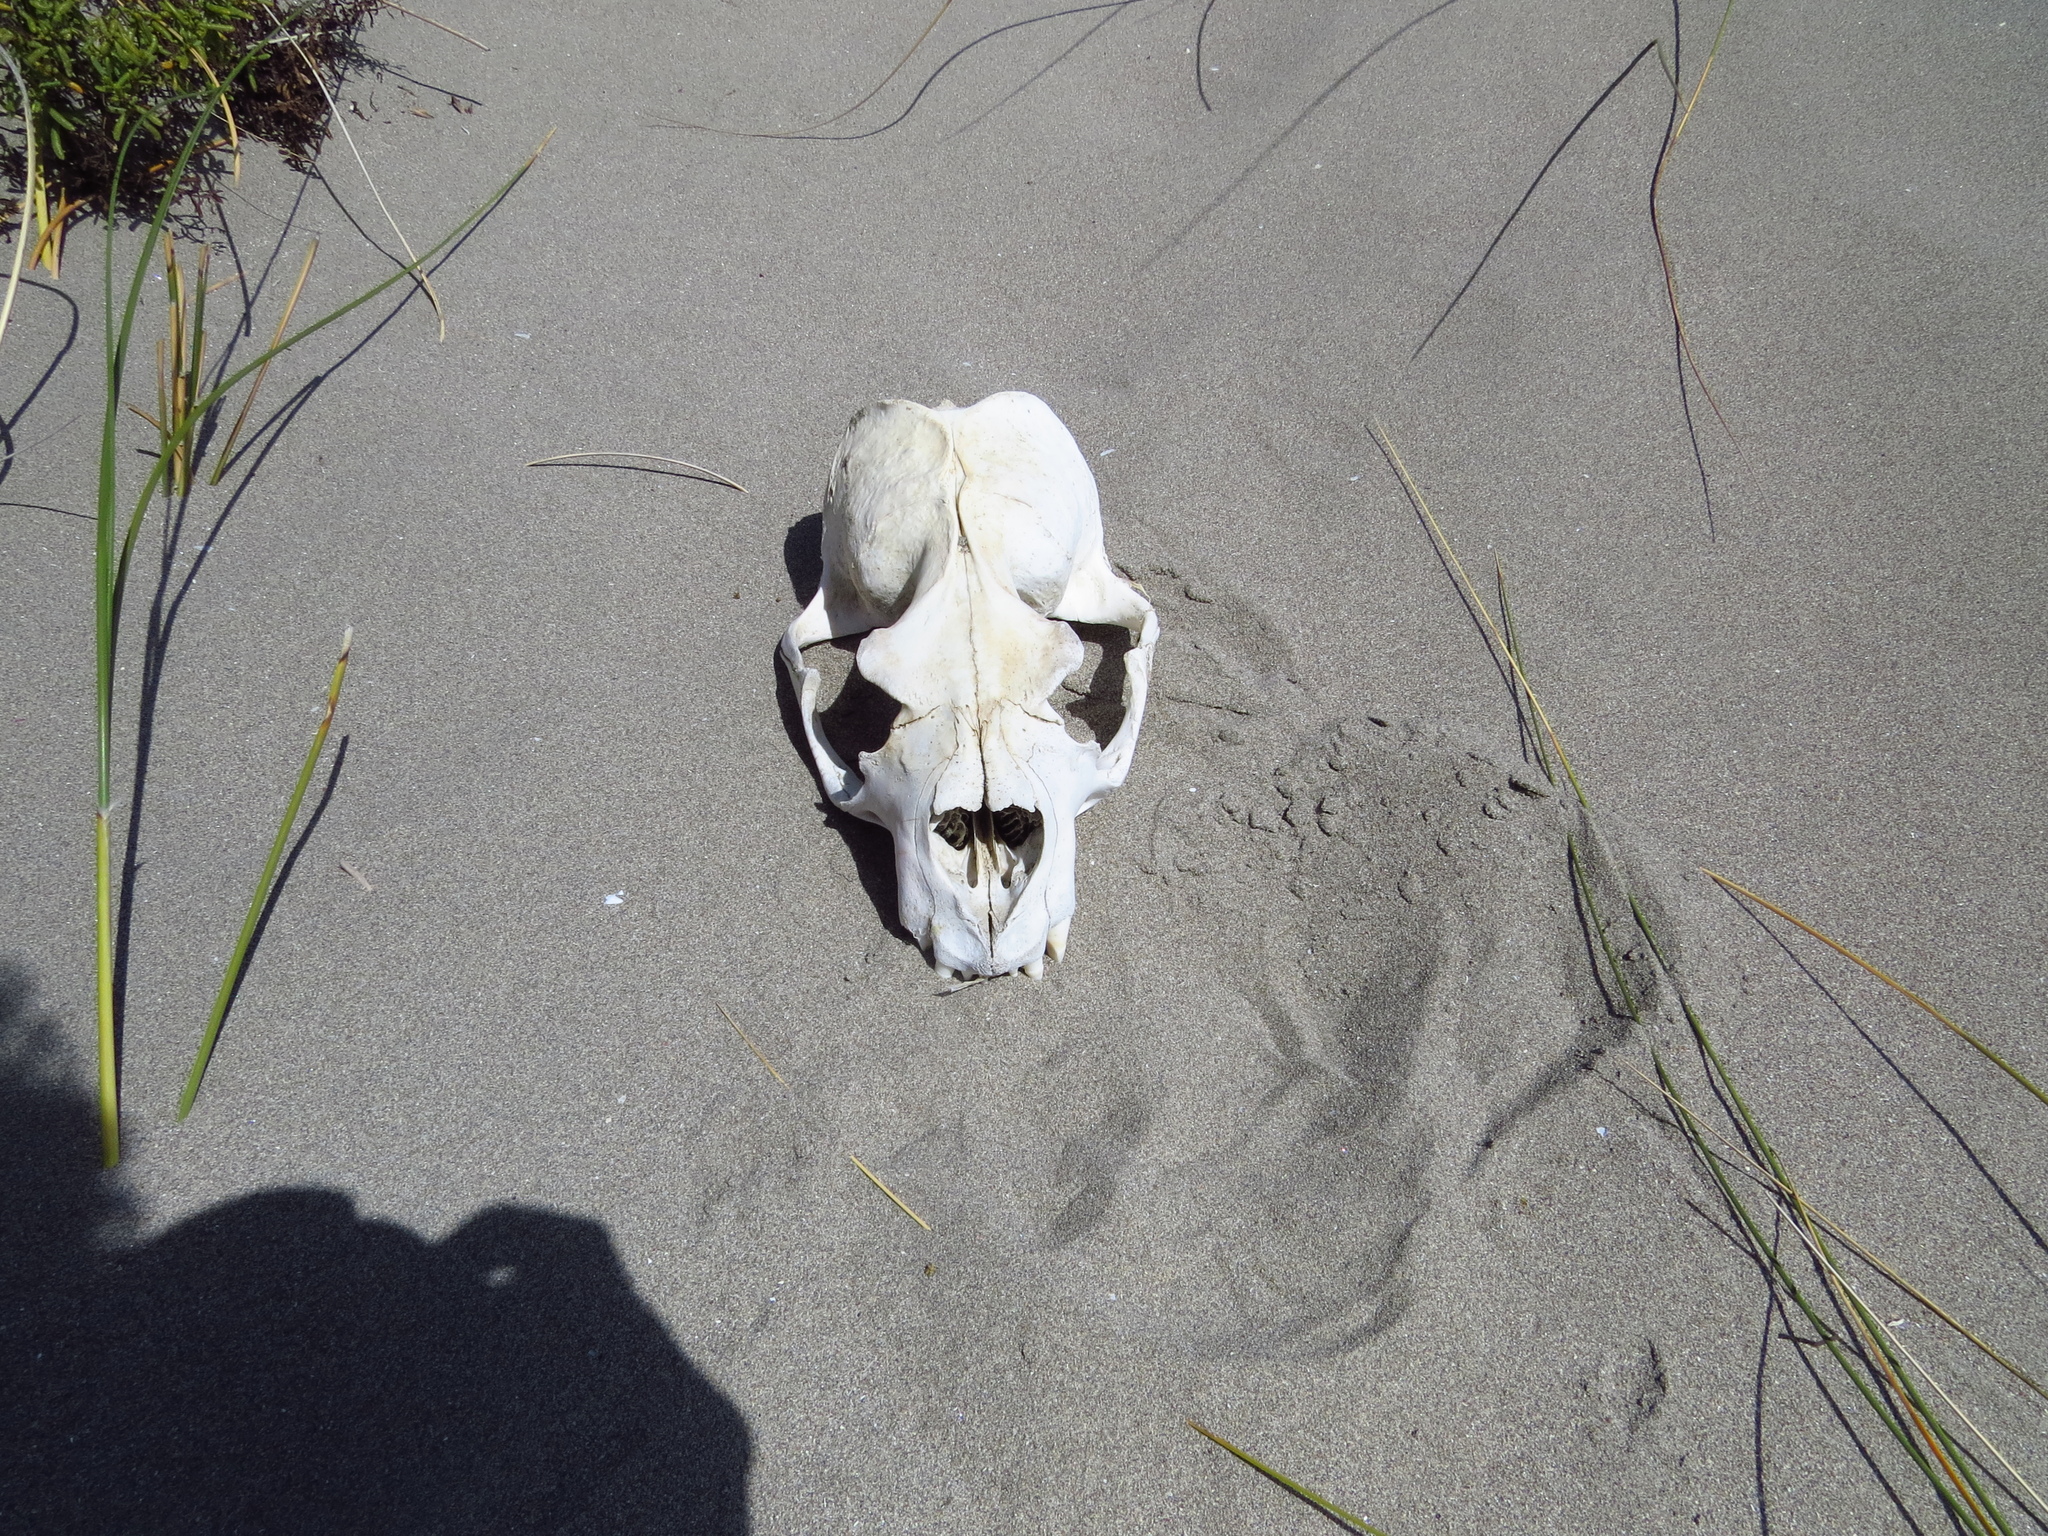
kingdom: Animalia
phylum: Chordata
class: Mammalia
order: Carnivora
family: Otariidae
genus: Otaria
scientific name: Otaria byronia
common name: South american sea lion
